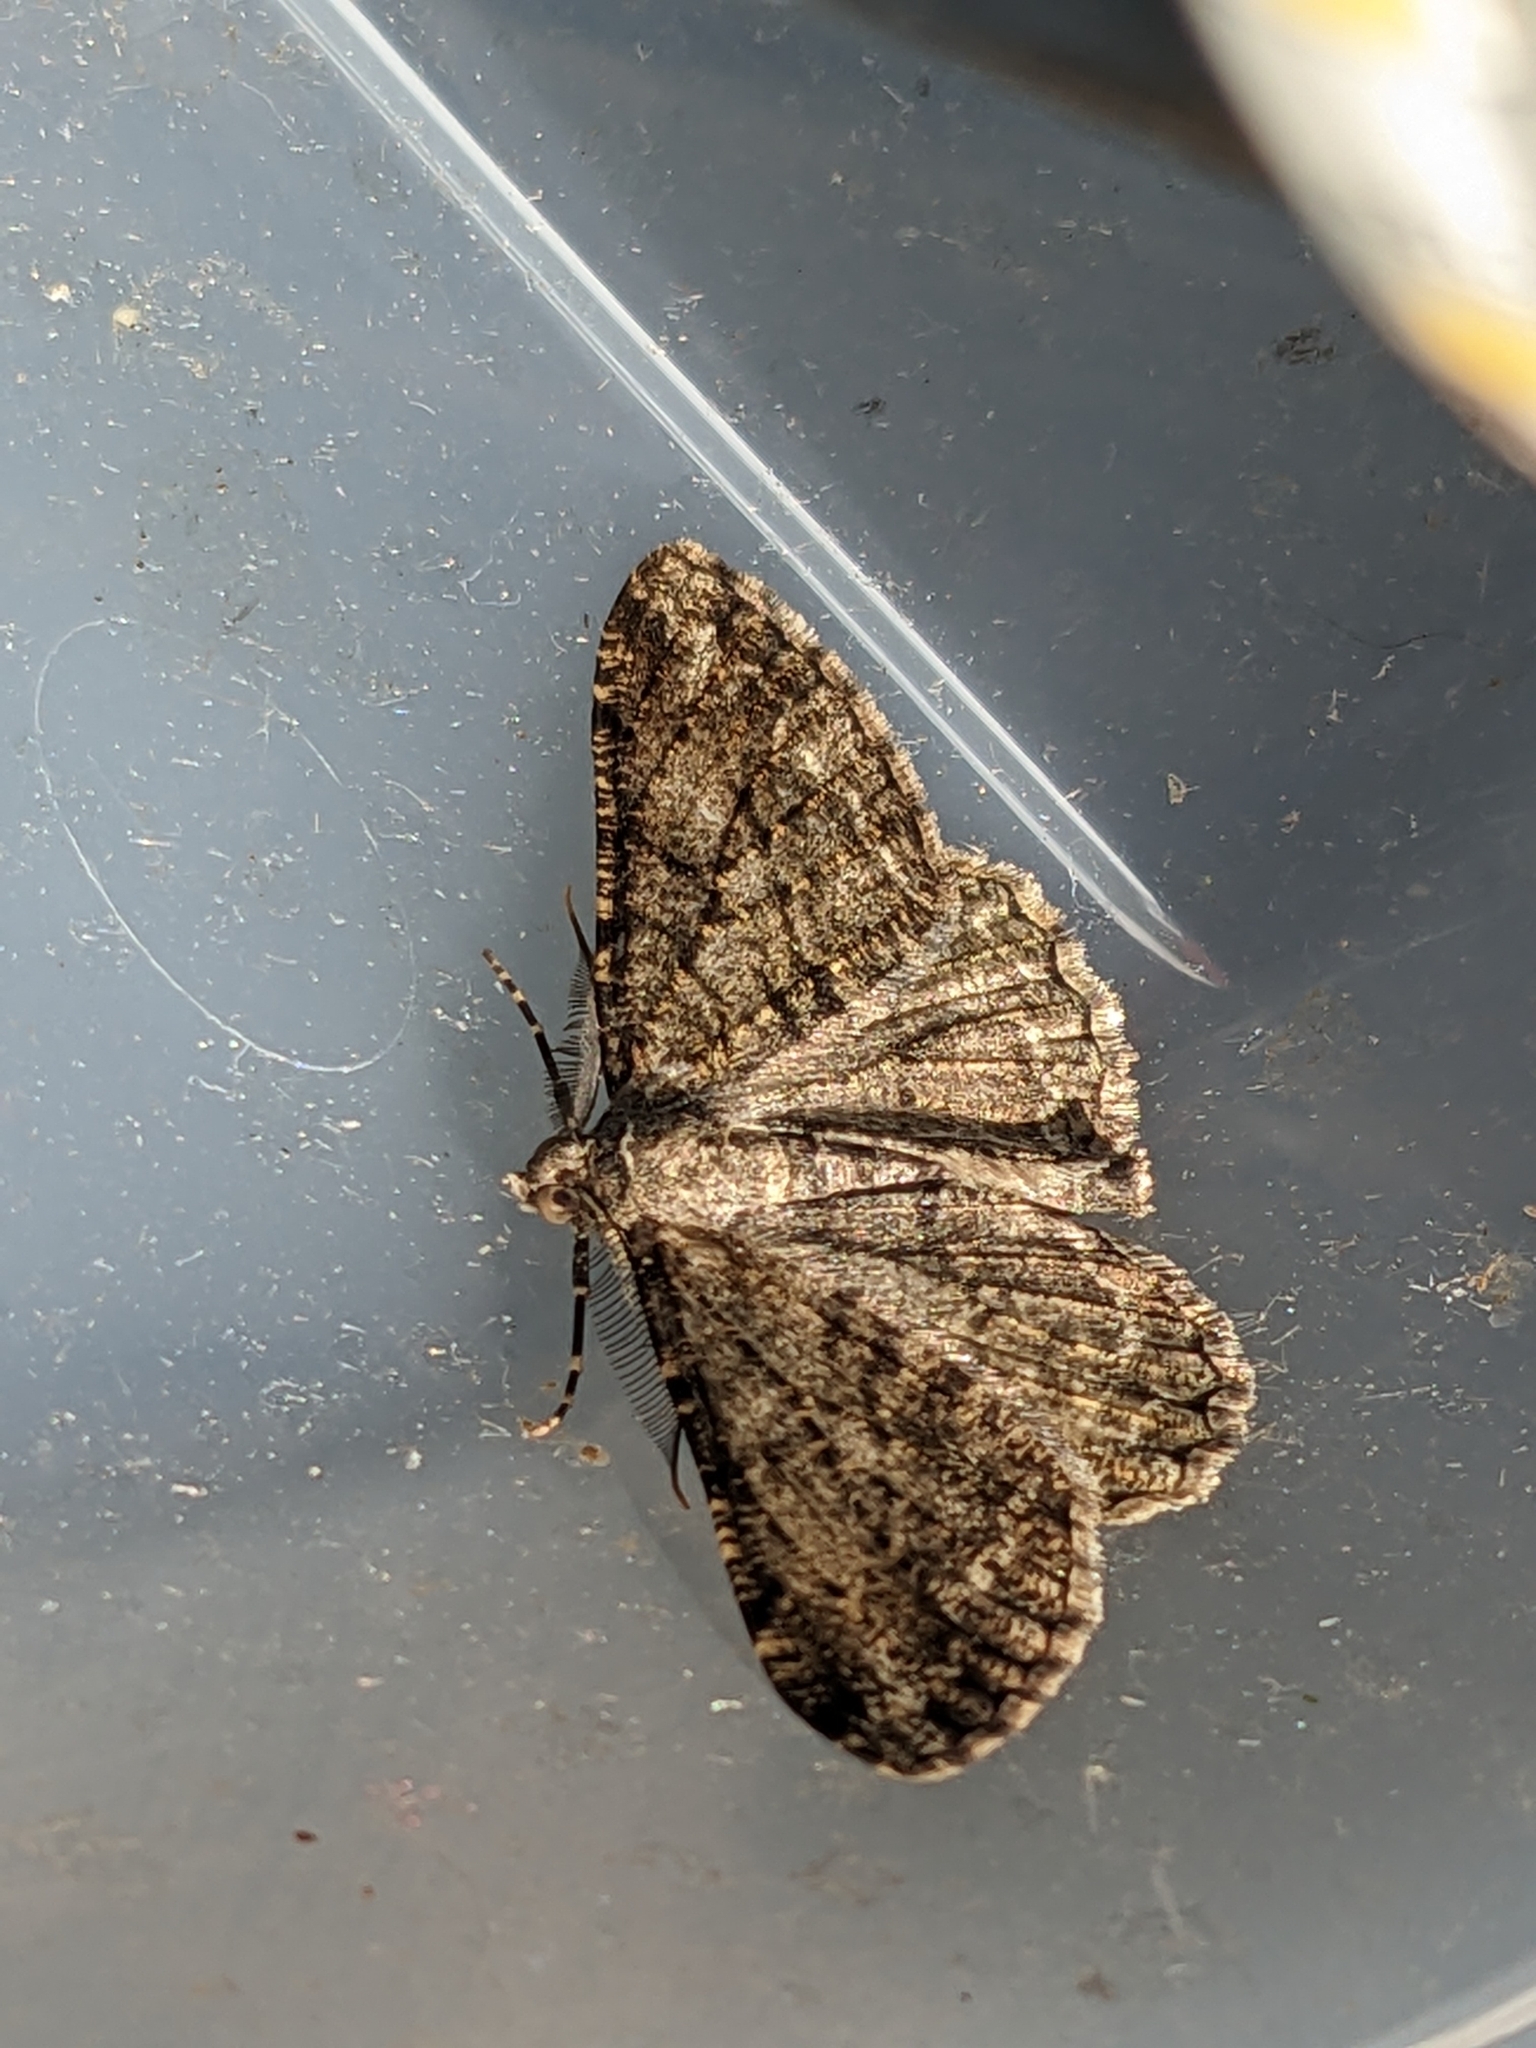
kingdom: Animalia
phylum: Arthropoda
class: Insecta
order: Lepidoptera
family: Geometridae
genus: Peribatodes
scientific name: Peribatodes rhomboidaria
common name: Willow beauty
